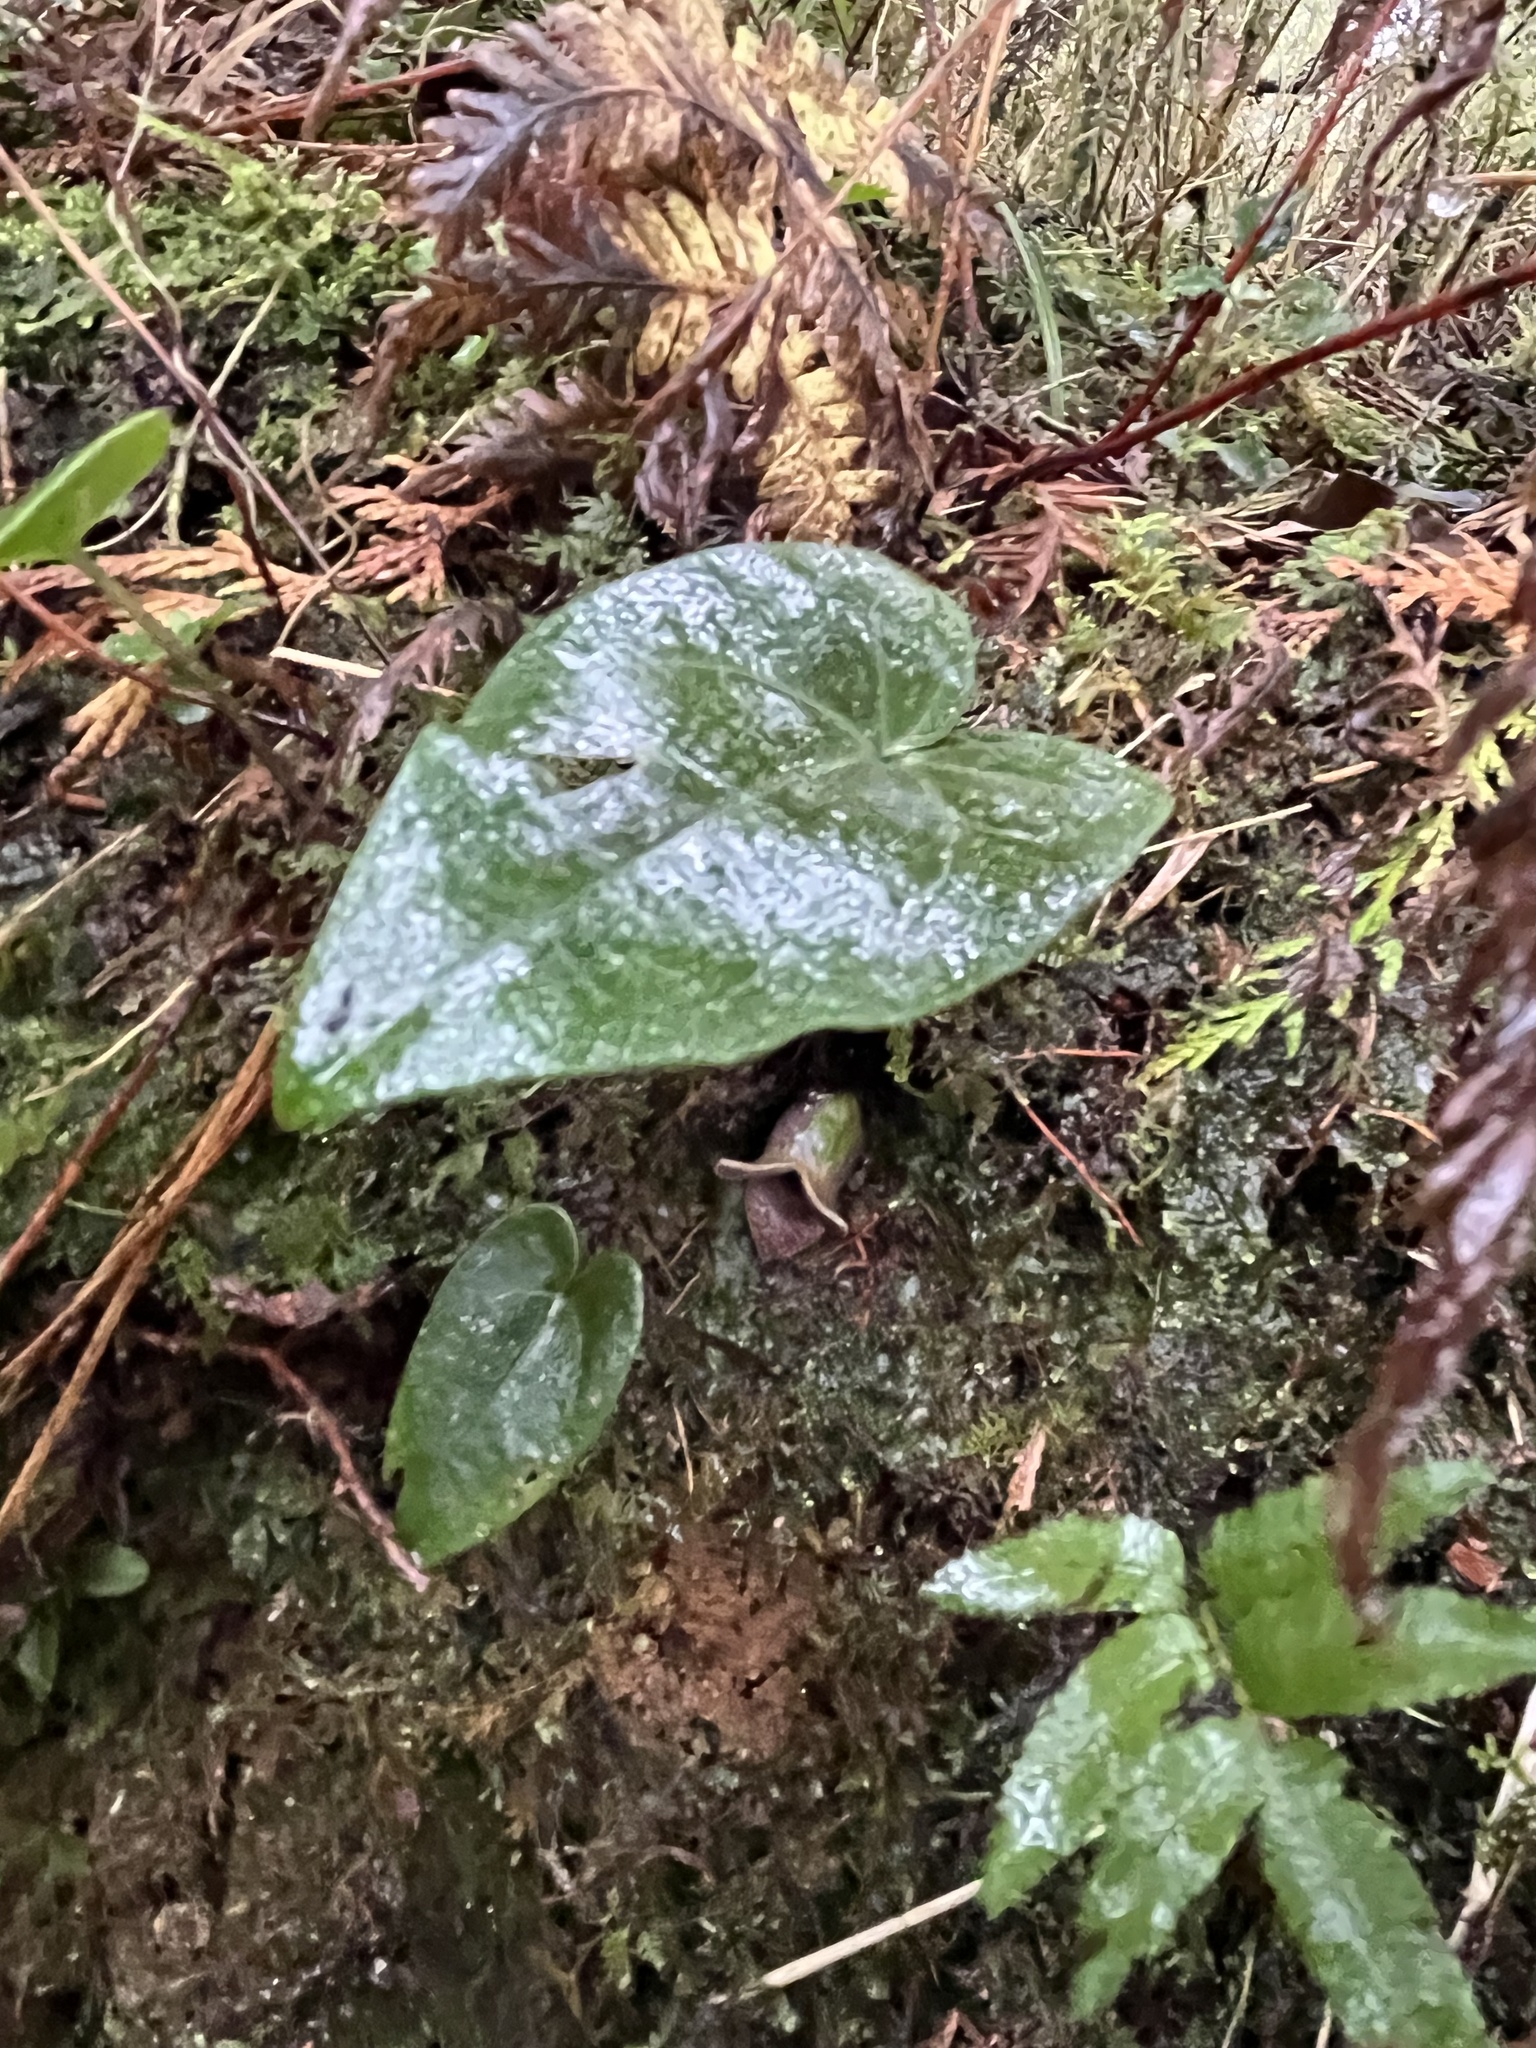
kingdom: Plantae
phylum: Tracheophyta
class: Magnoliopsida
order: Piperales
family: Aristolochiaceae
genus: Asarum
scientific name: Asarum taipingshanianum
